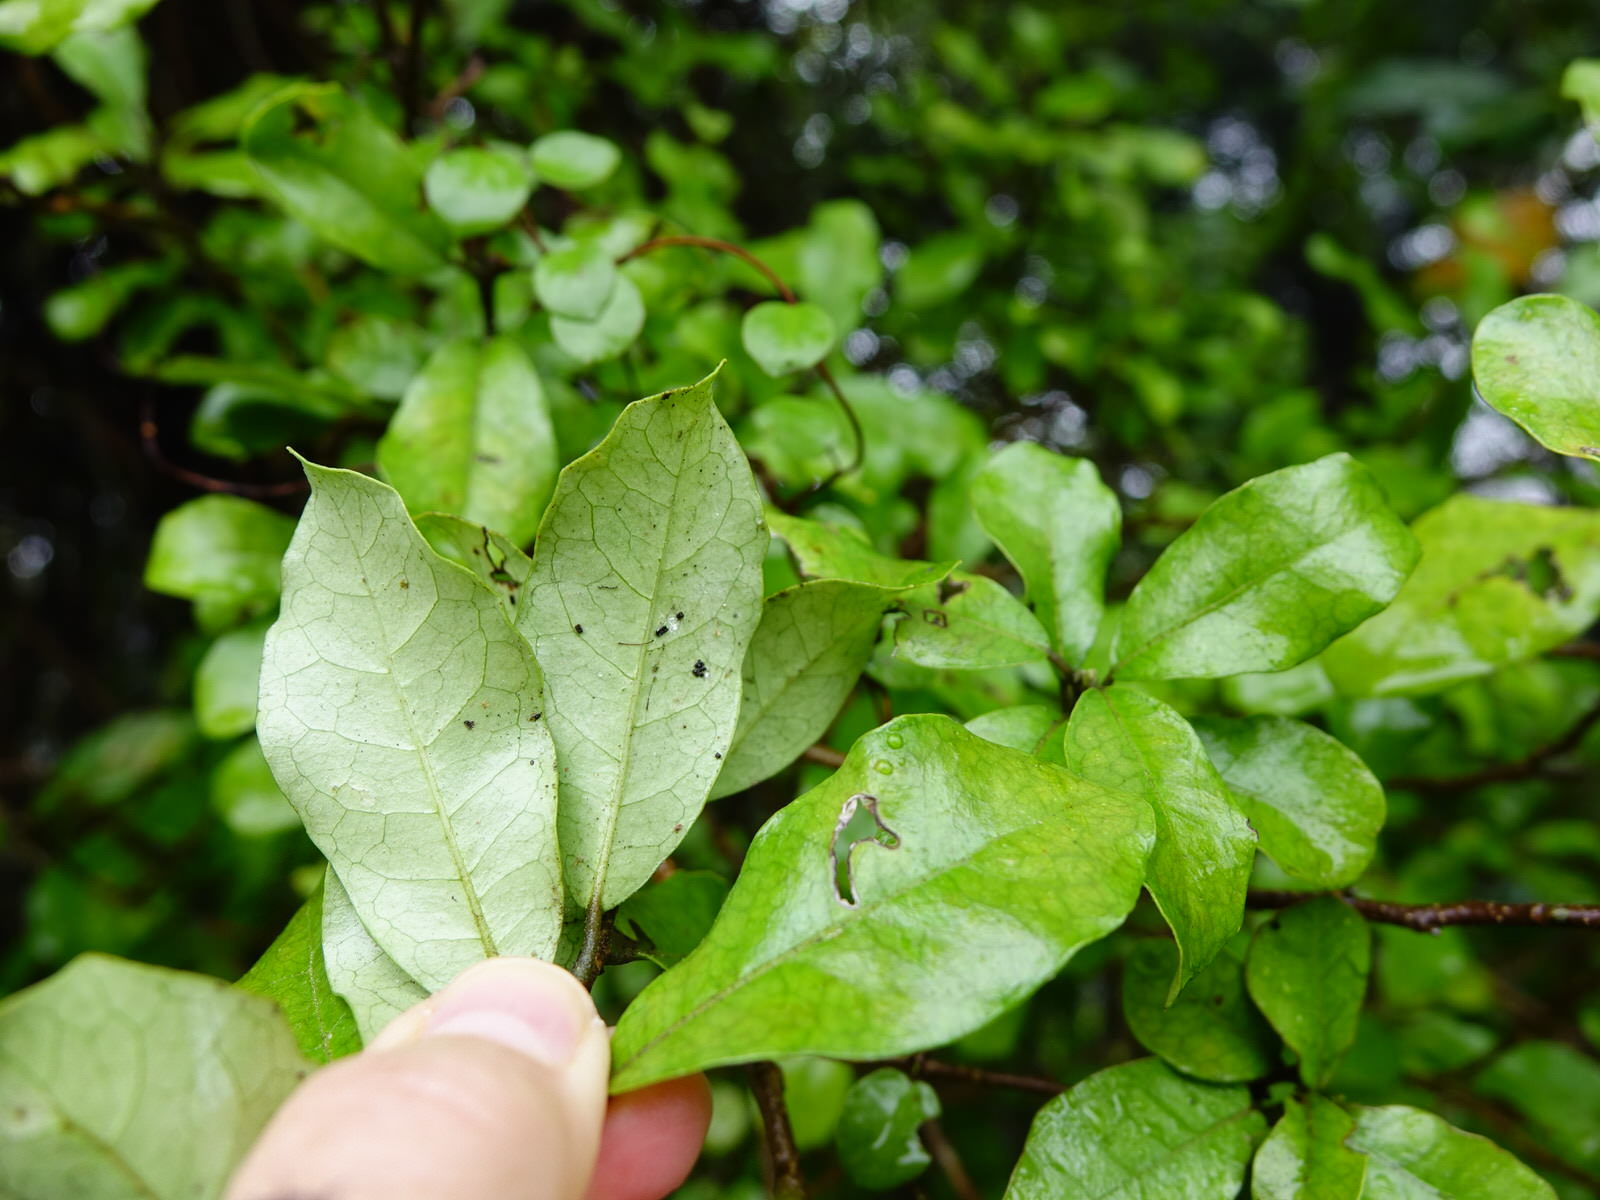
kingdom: Plantae
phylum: Tracheophyta
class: Magnoliopsida
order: Apiales
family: Pennantiaceae
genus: Pennantia
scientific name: Pennantia corymbosa
